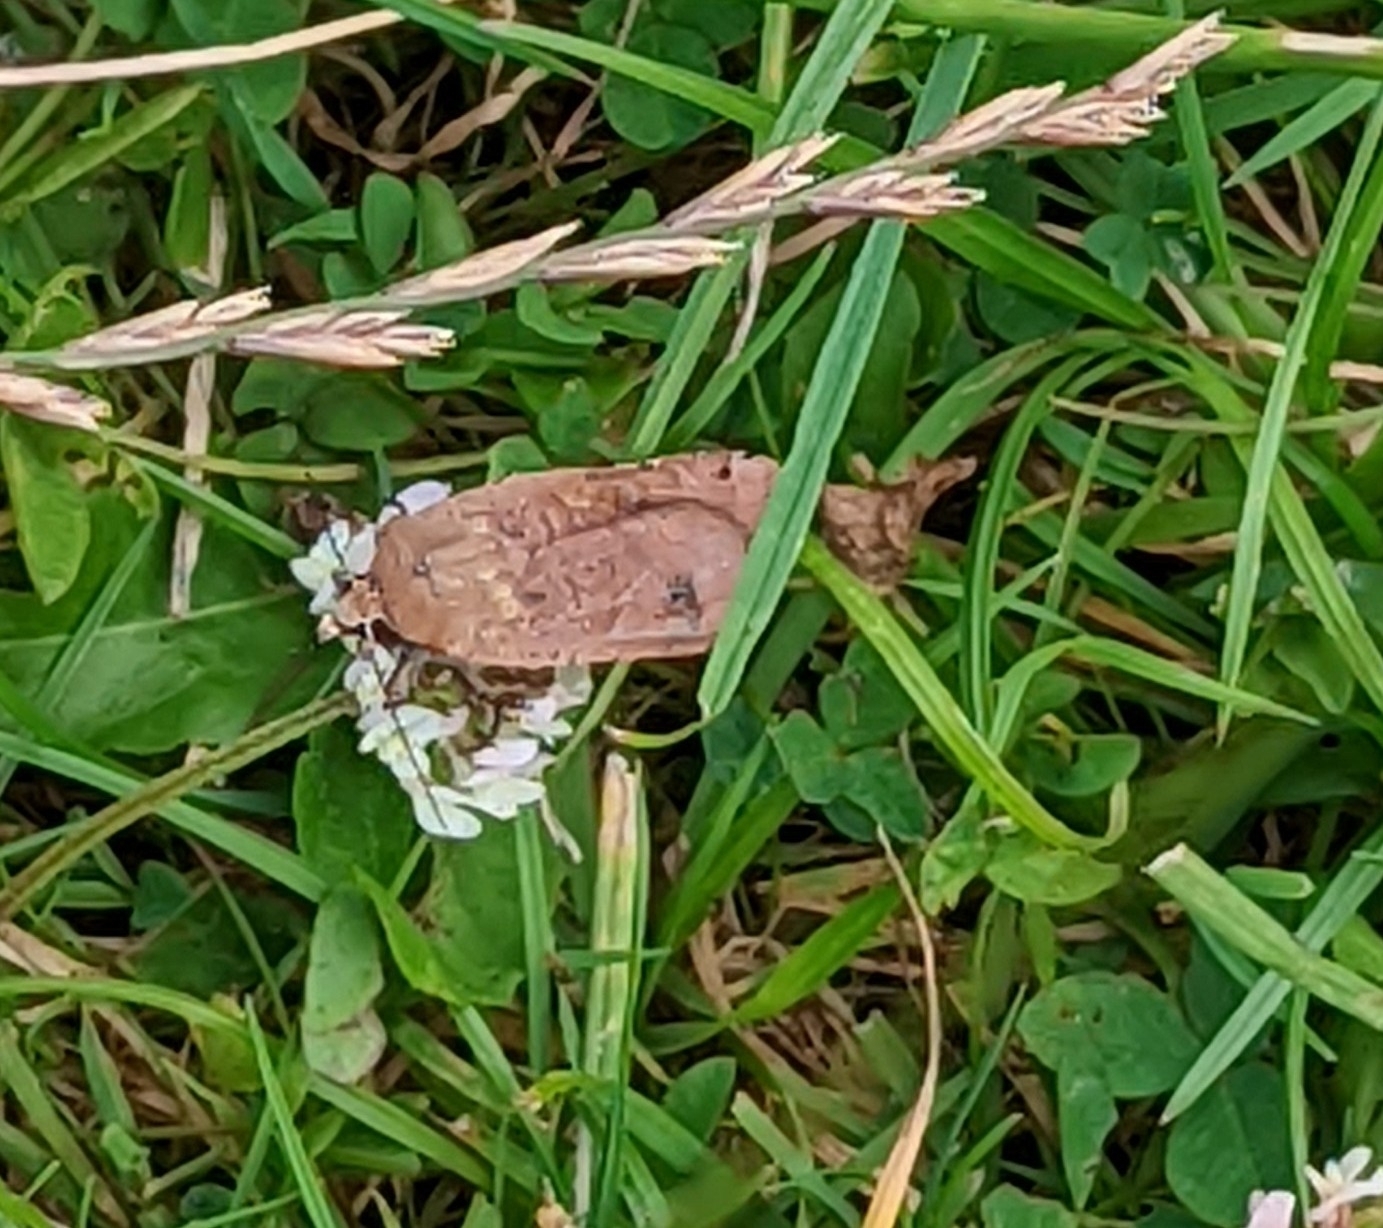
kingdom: Animalia
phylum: Arthropoda
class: Insecta
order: Lepidoptera
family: Noctuidae
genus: Noctua
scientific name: Noctua pronuba
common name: Large yellow underwing
